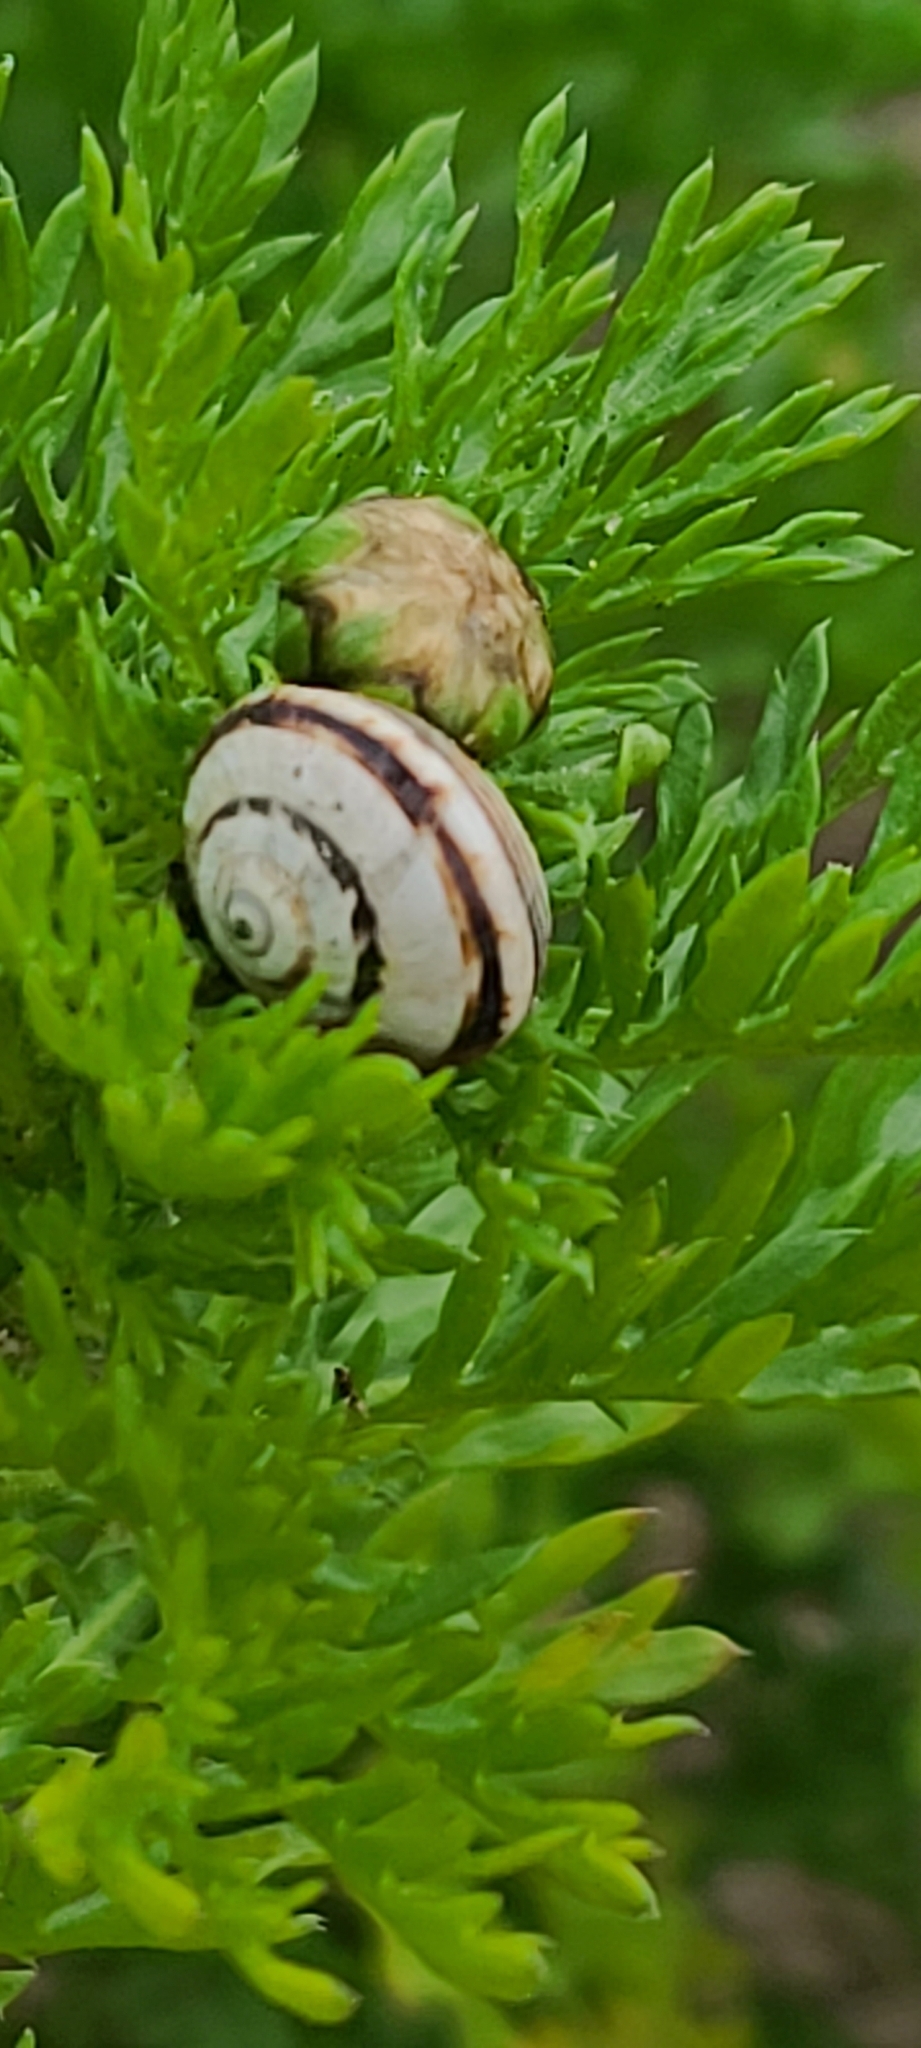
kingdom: Animalia
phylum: Mollusca
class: Gastropoda
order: Stylommatophora
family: Helicidae
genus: Theba
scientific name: Theba pisana
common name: White snail
